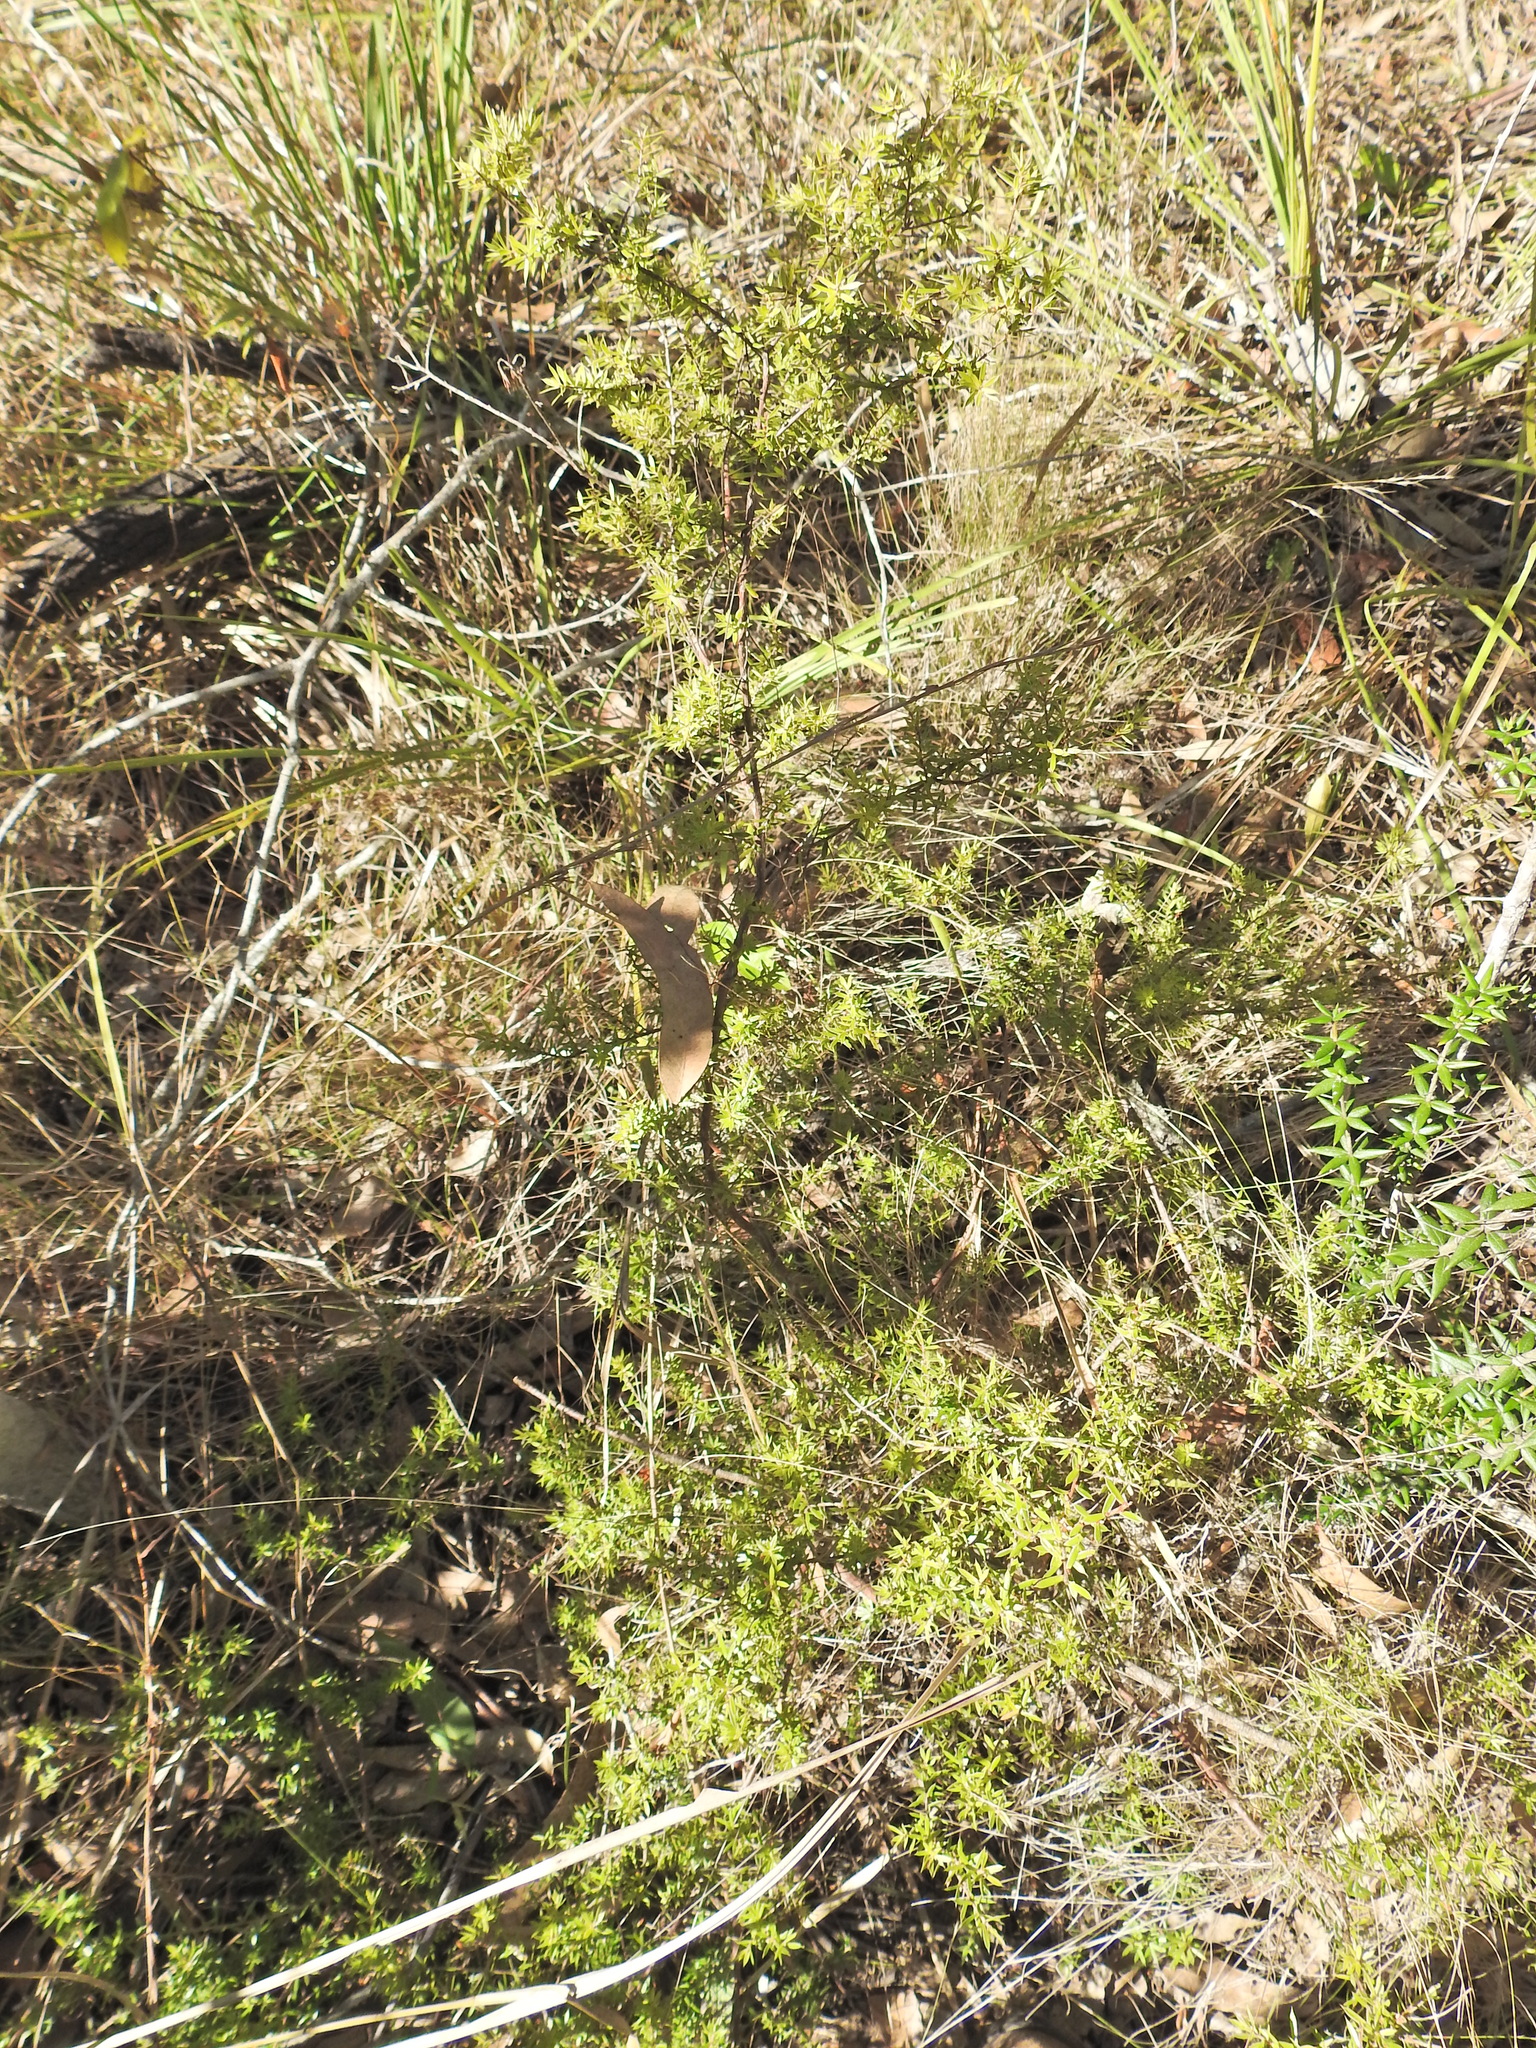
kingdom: Plantae
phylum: Tracheophyta
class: Magnoliopsida
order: Ericales
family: Ericaceae
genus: Styphelia
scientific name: Styphelia sieberi
